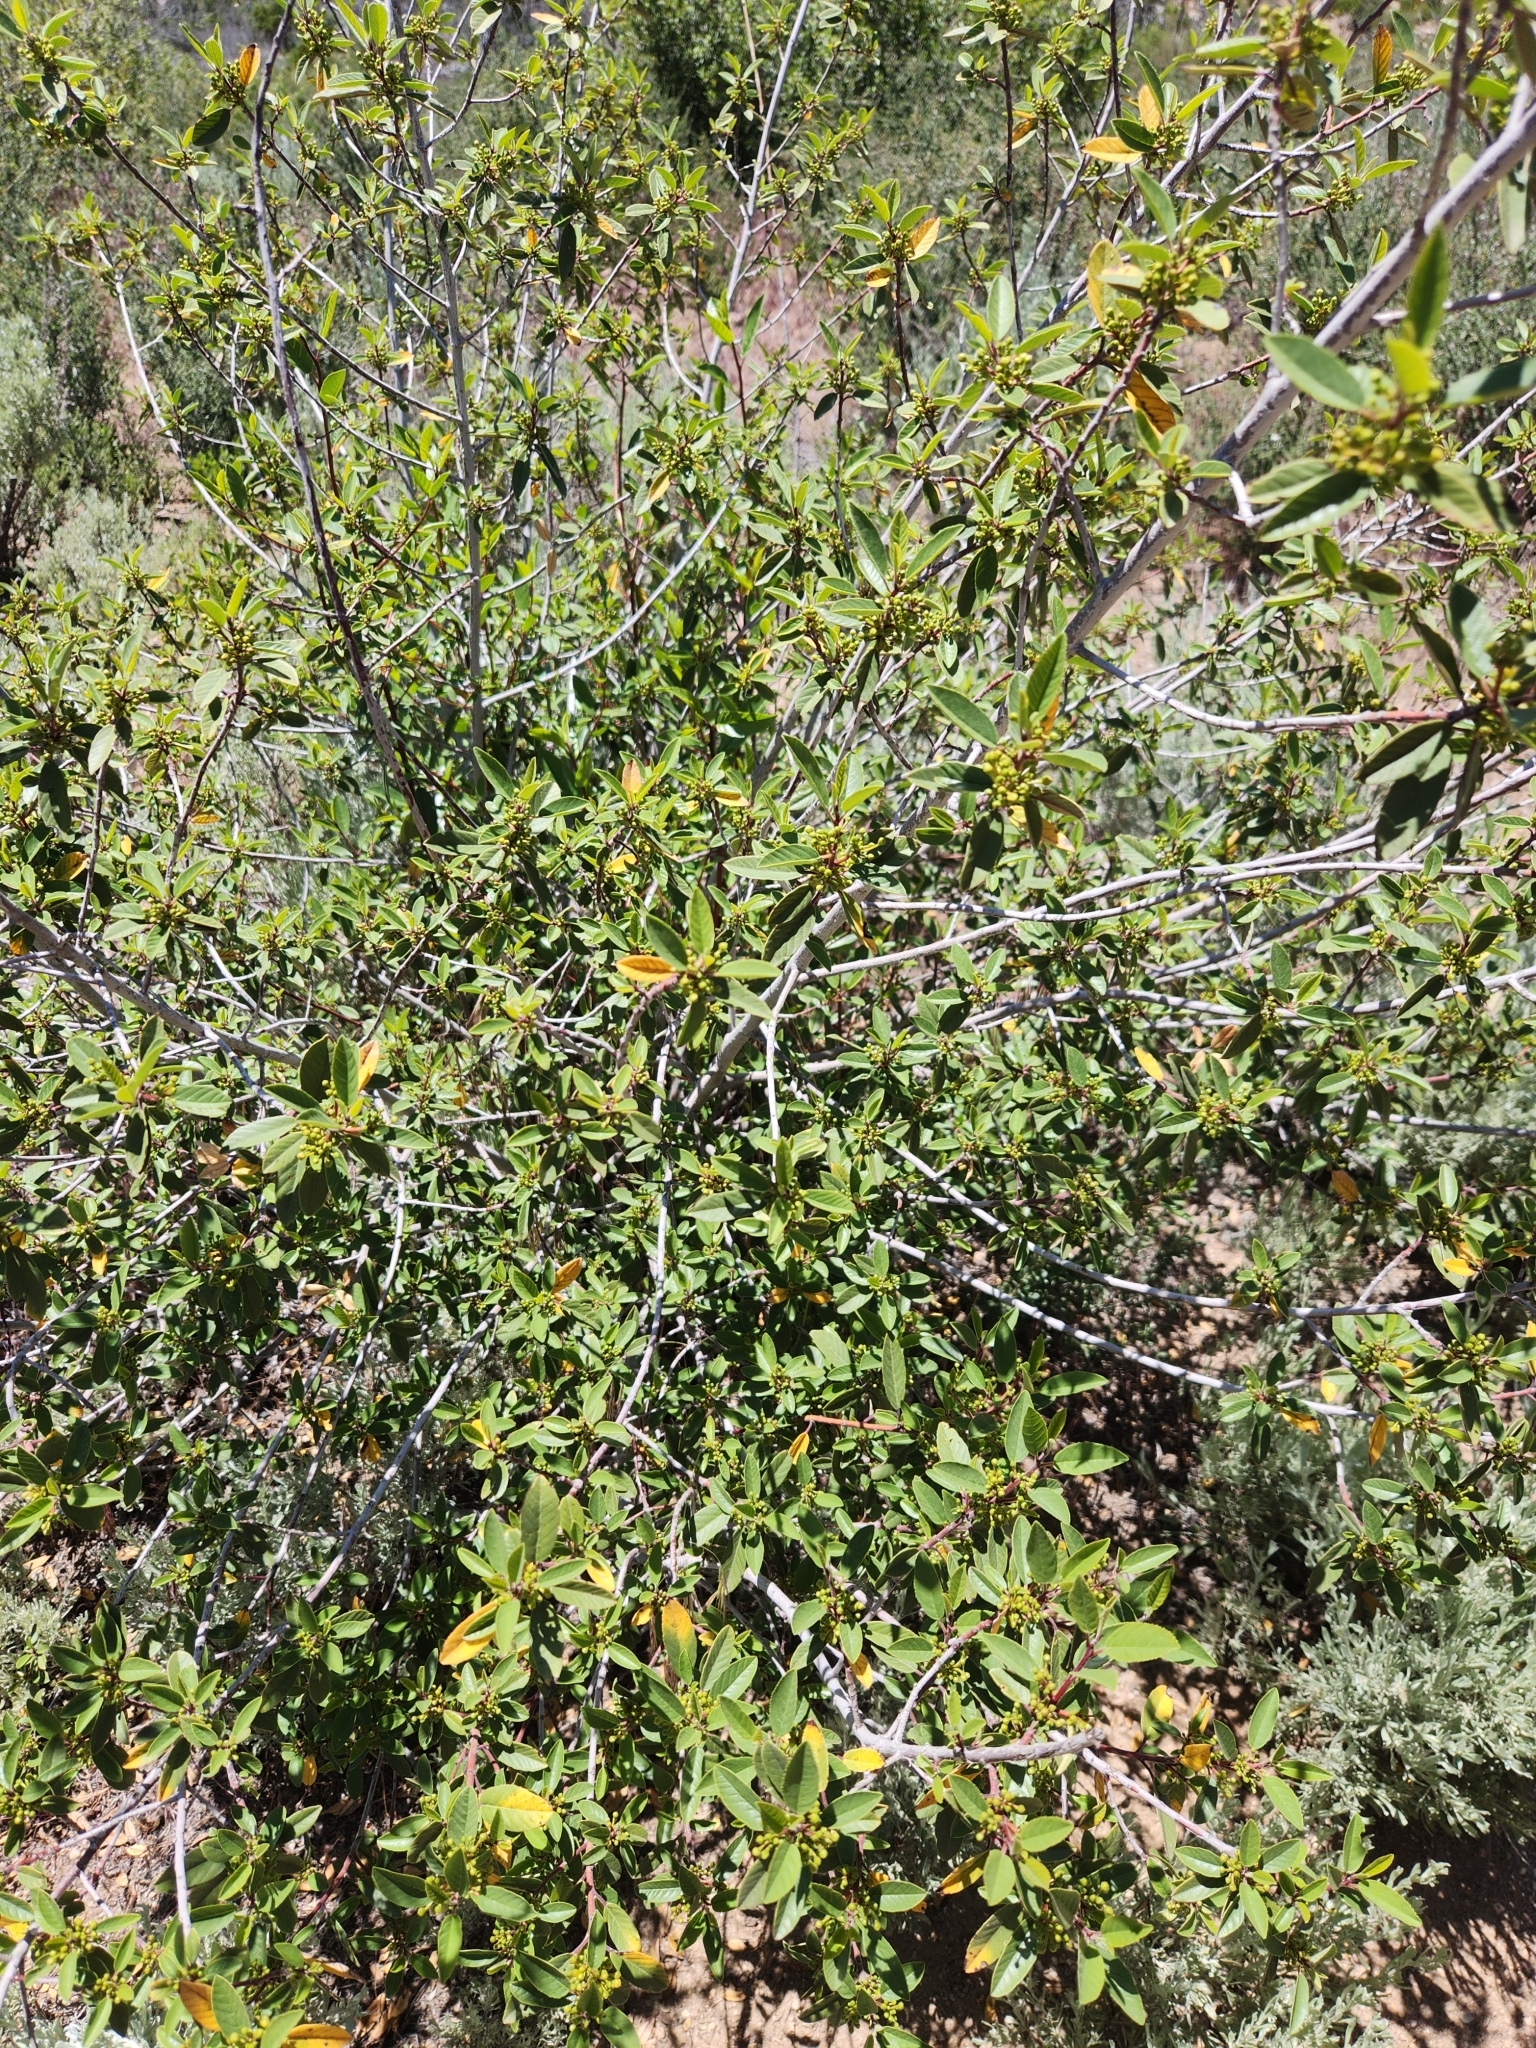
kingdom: Plantae
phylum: Tracheophyta
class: Magnoliopsida
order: Rosales
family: Rhamnaceae
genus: Frangula
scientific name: Frangula californica
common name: California buckthorn
